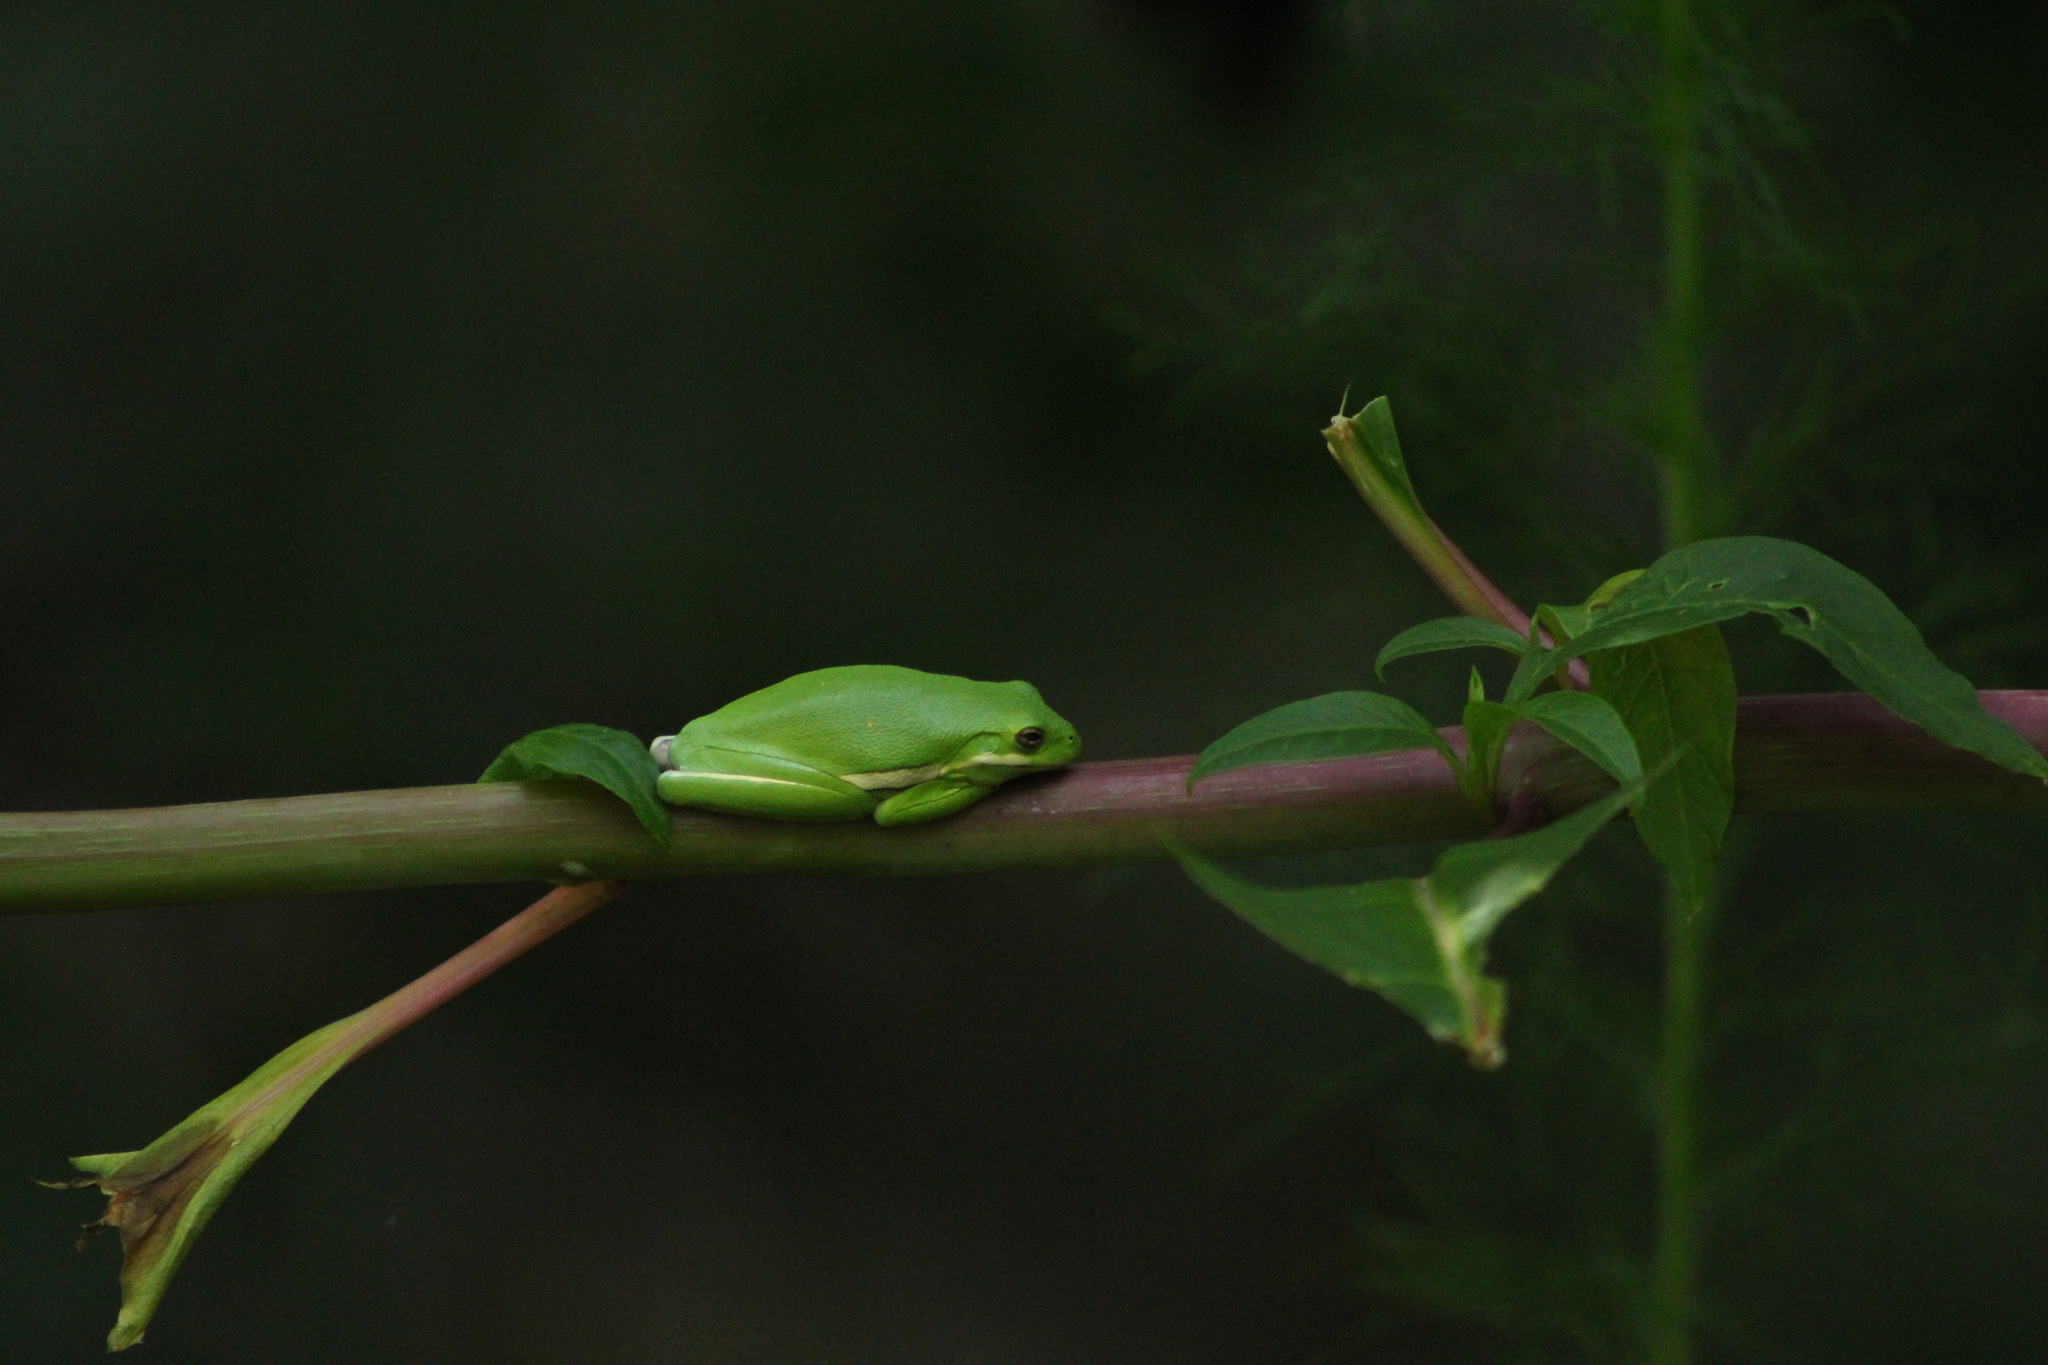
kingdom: Animalia
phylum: Chordata
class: Amphibia
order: Anura
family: Hylidae
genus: Dryophytes
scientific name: Dryophytes cinereus
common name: Green treefrog
